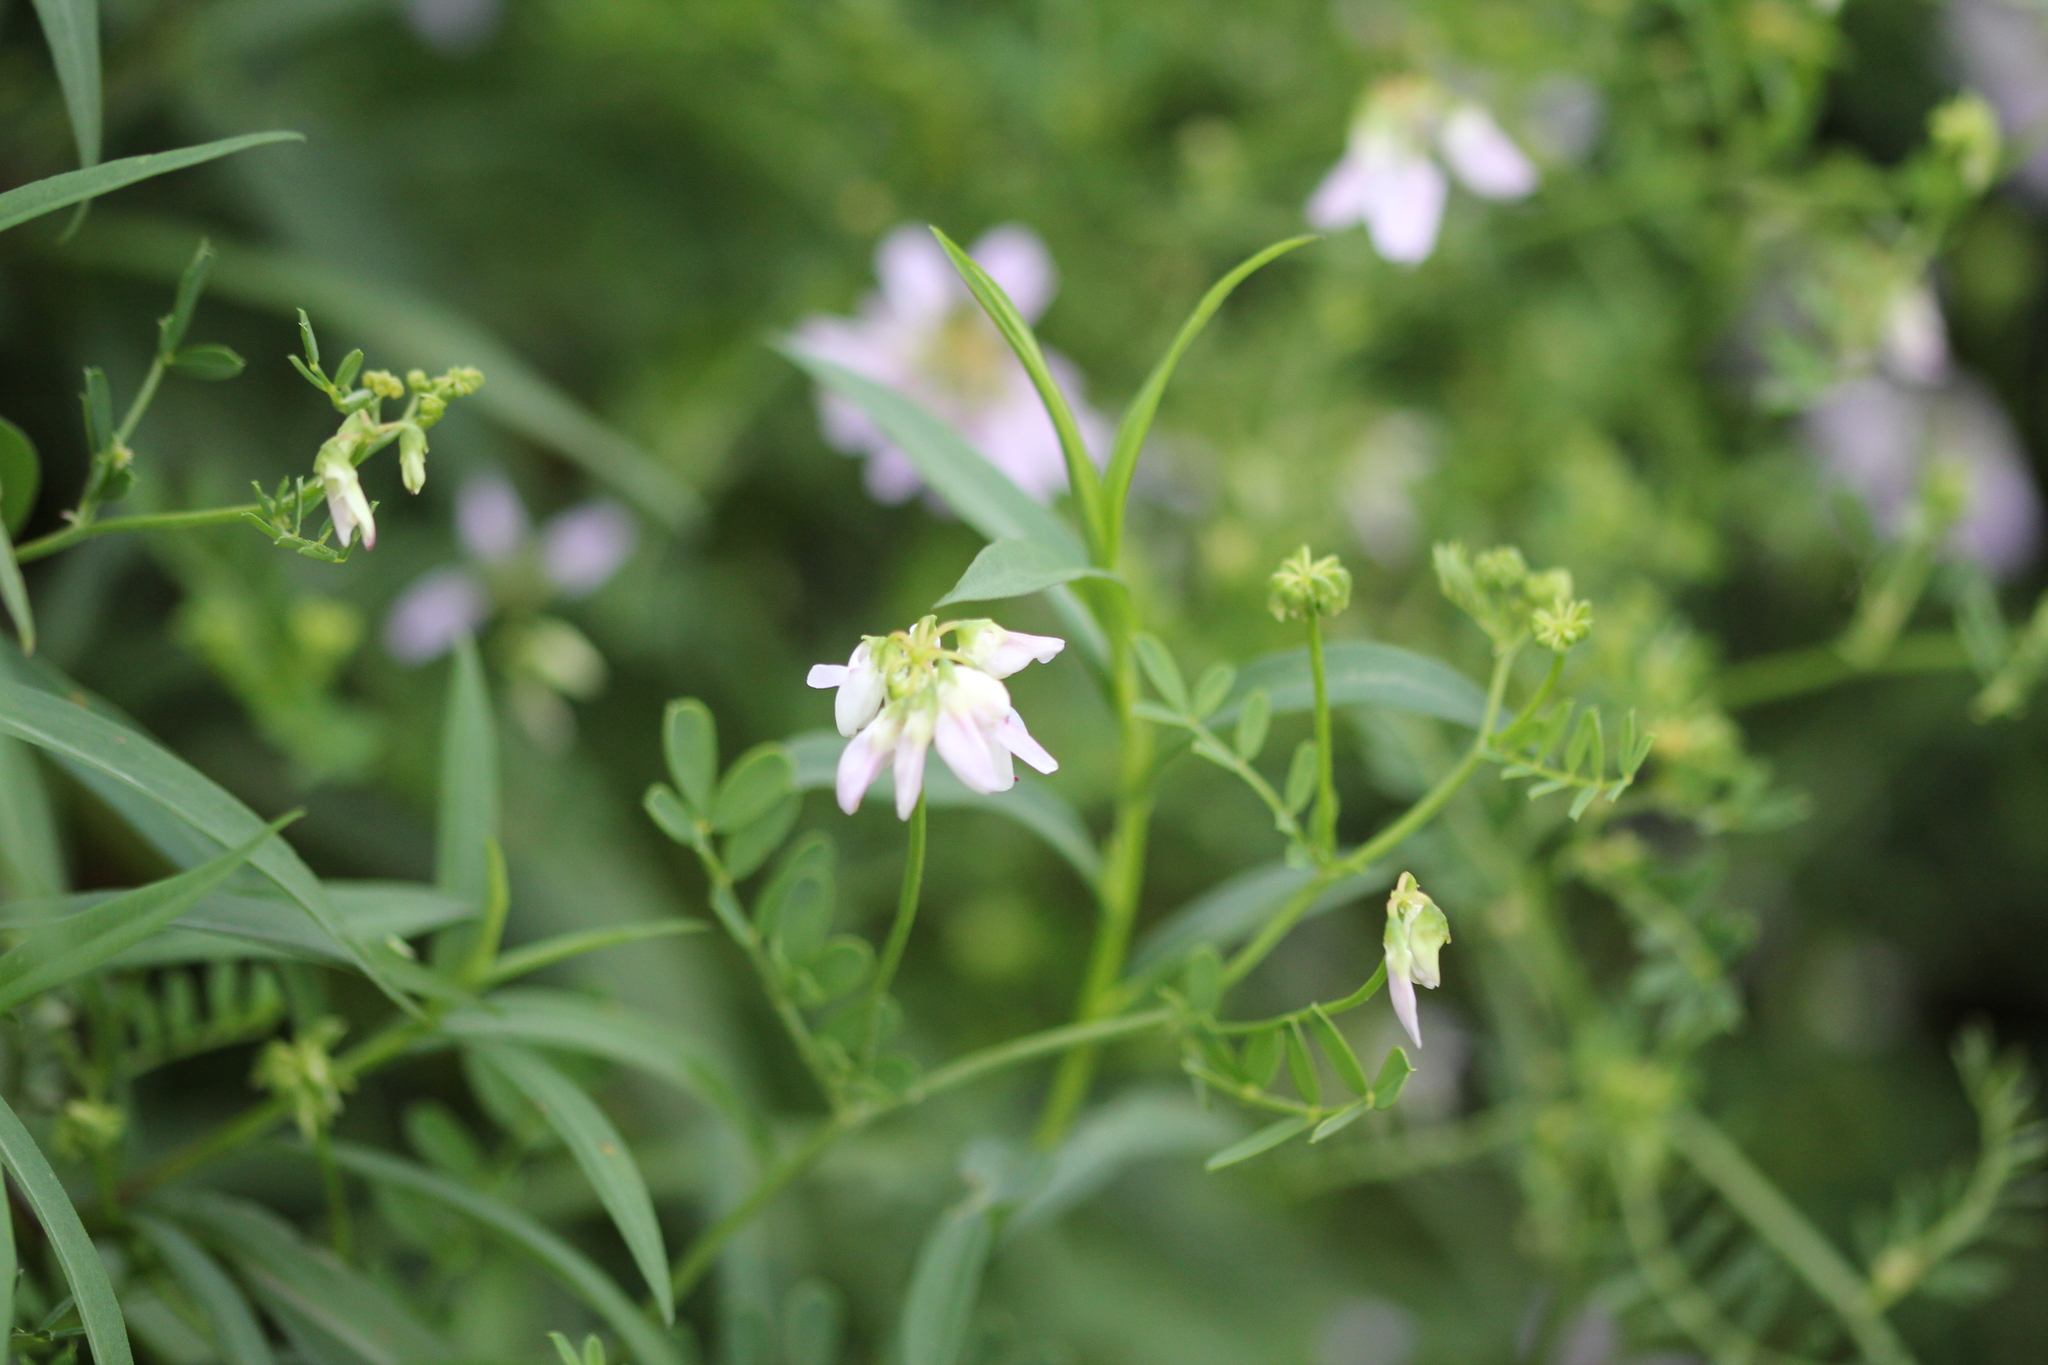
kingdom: Plantae
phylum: Tracheophyta
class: Magnoliopsida
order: Fabales
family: Fabaceae
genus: Coronilla
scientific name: Coronilla varia
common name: Crownvetch
